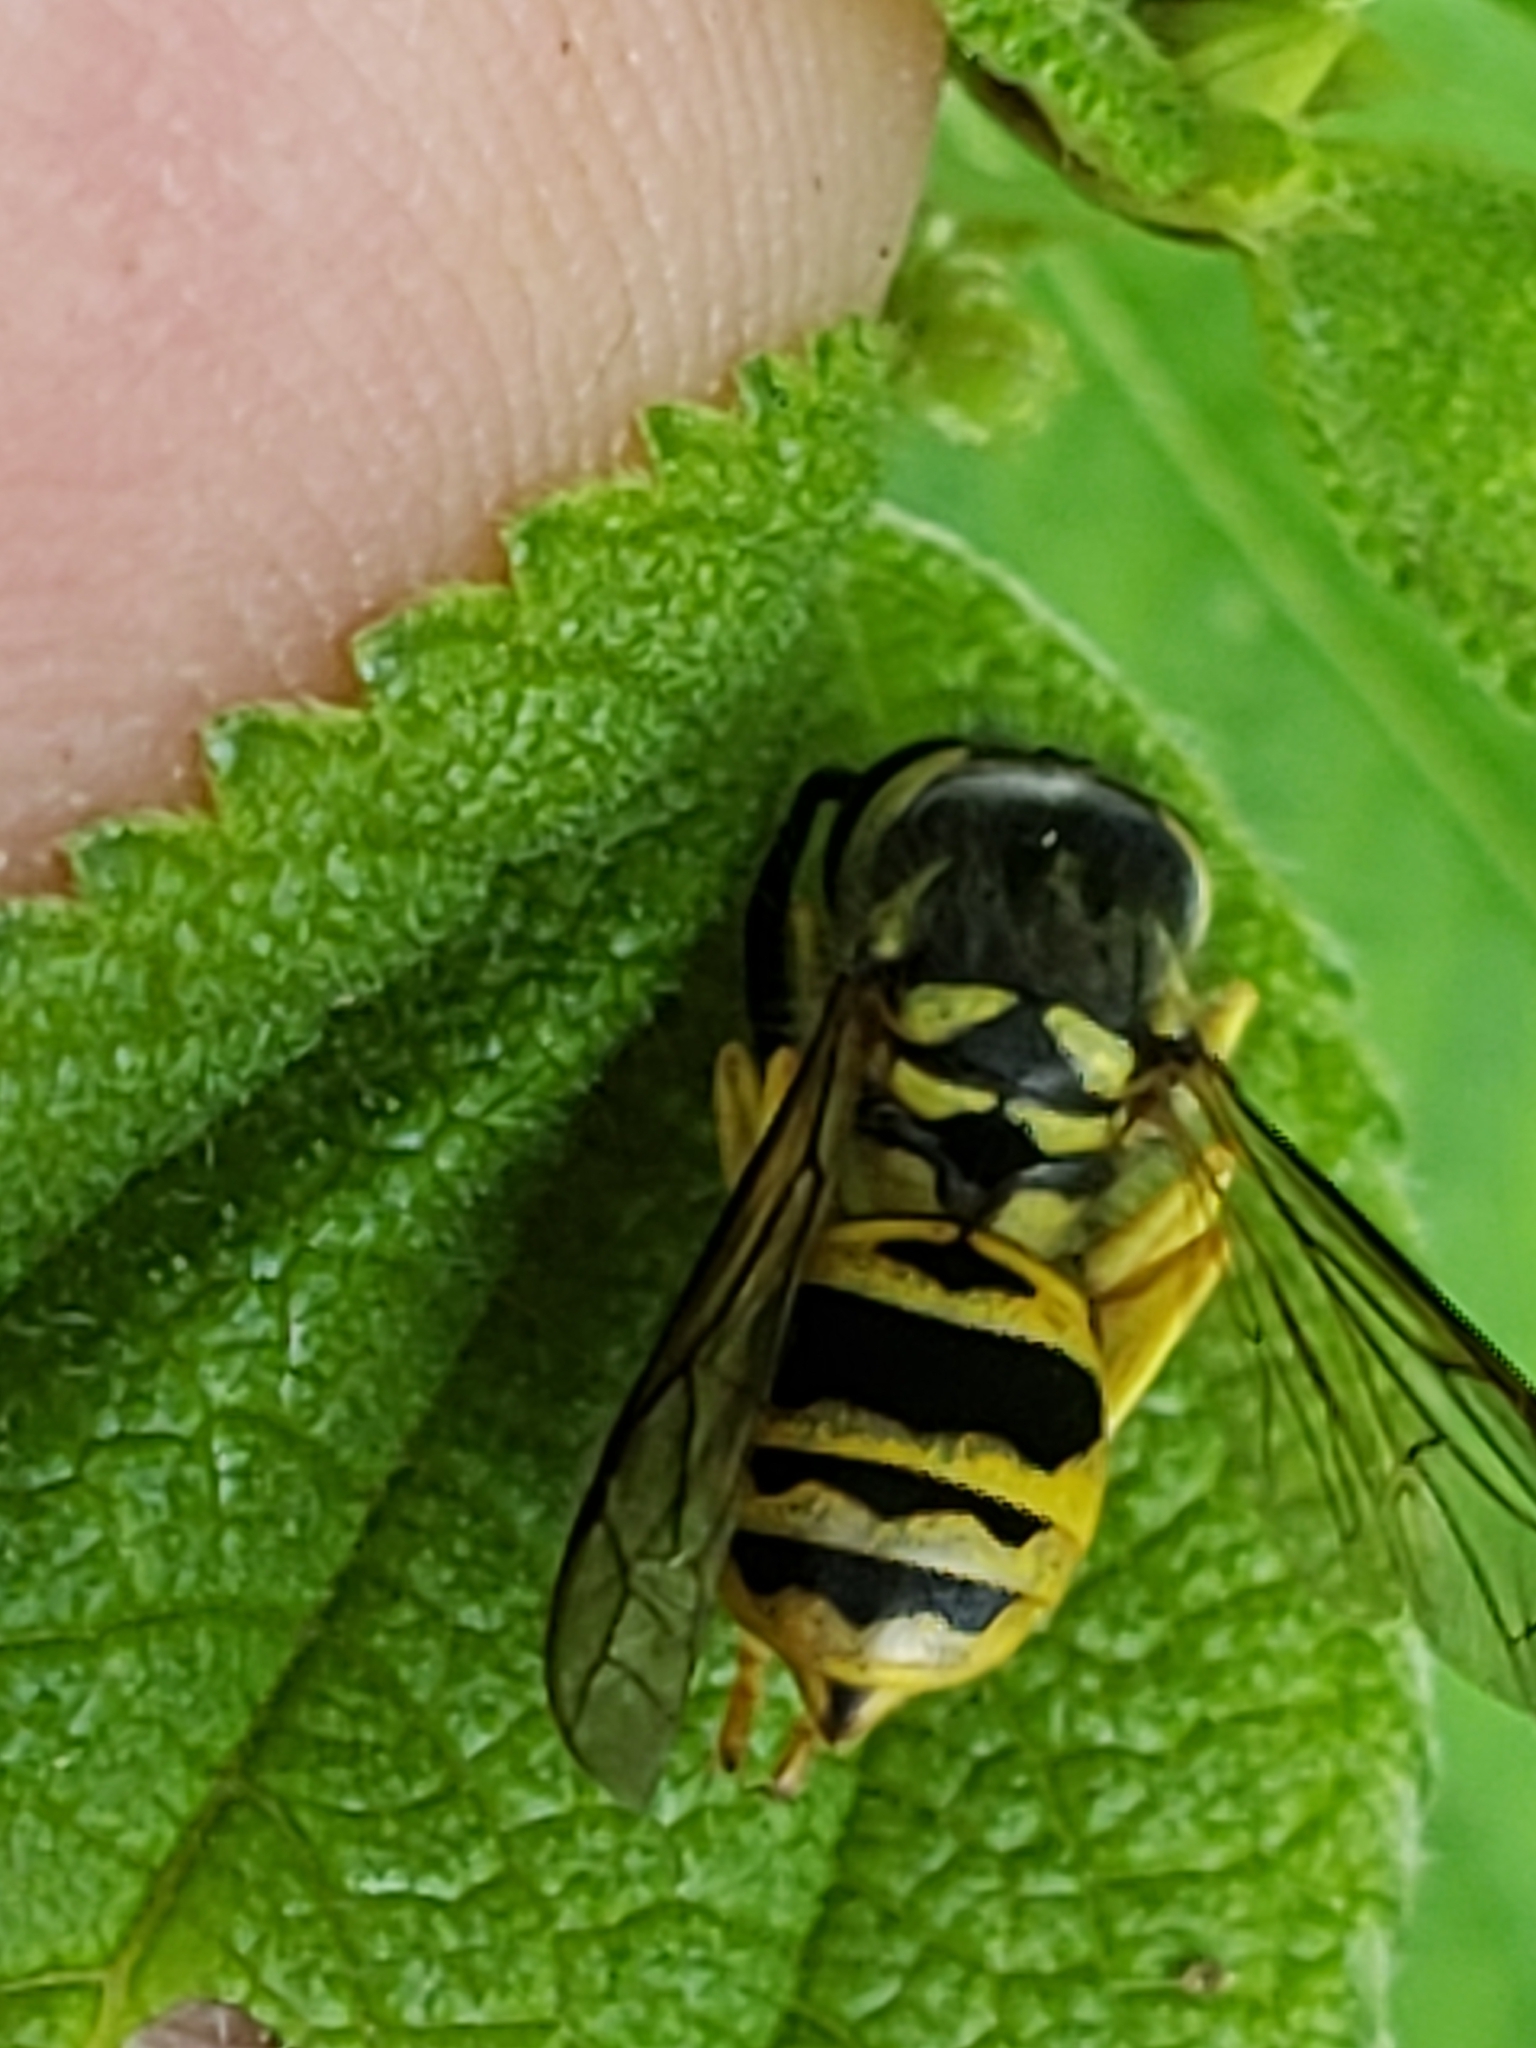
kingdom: Animalia
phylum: Arthropoda
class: Insecta
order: Hymenoptera
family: Vespidae
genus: Vespula
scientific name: Vespula maculifrons
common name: Eastern yellowjacket
